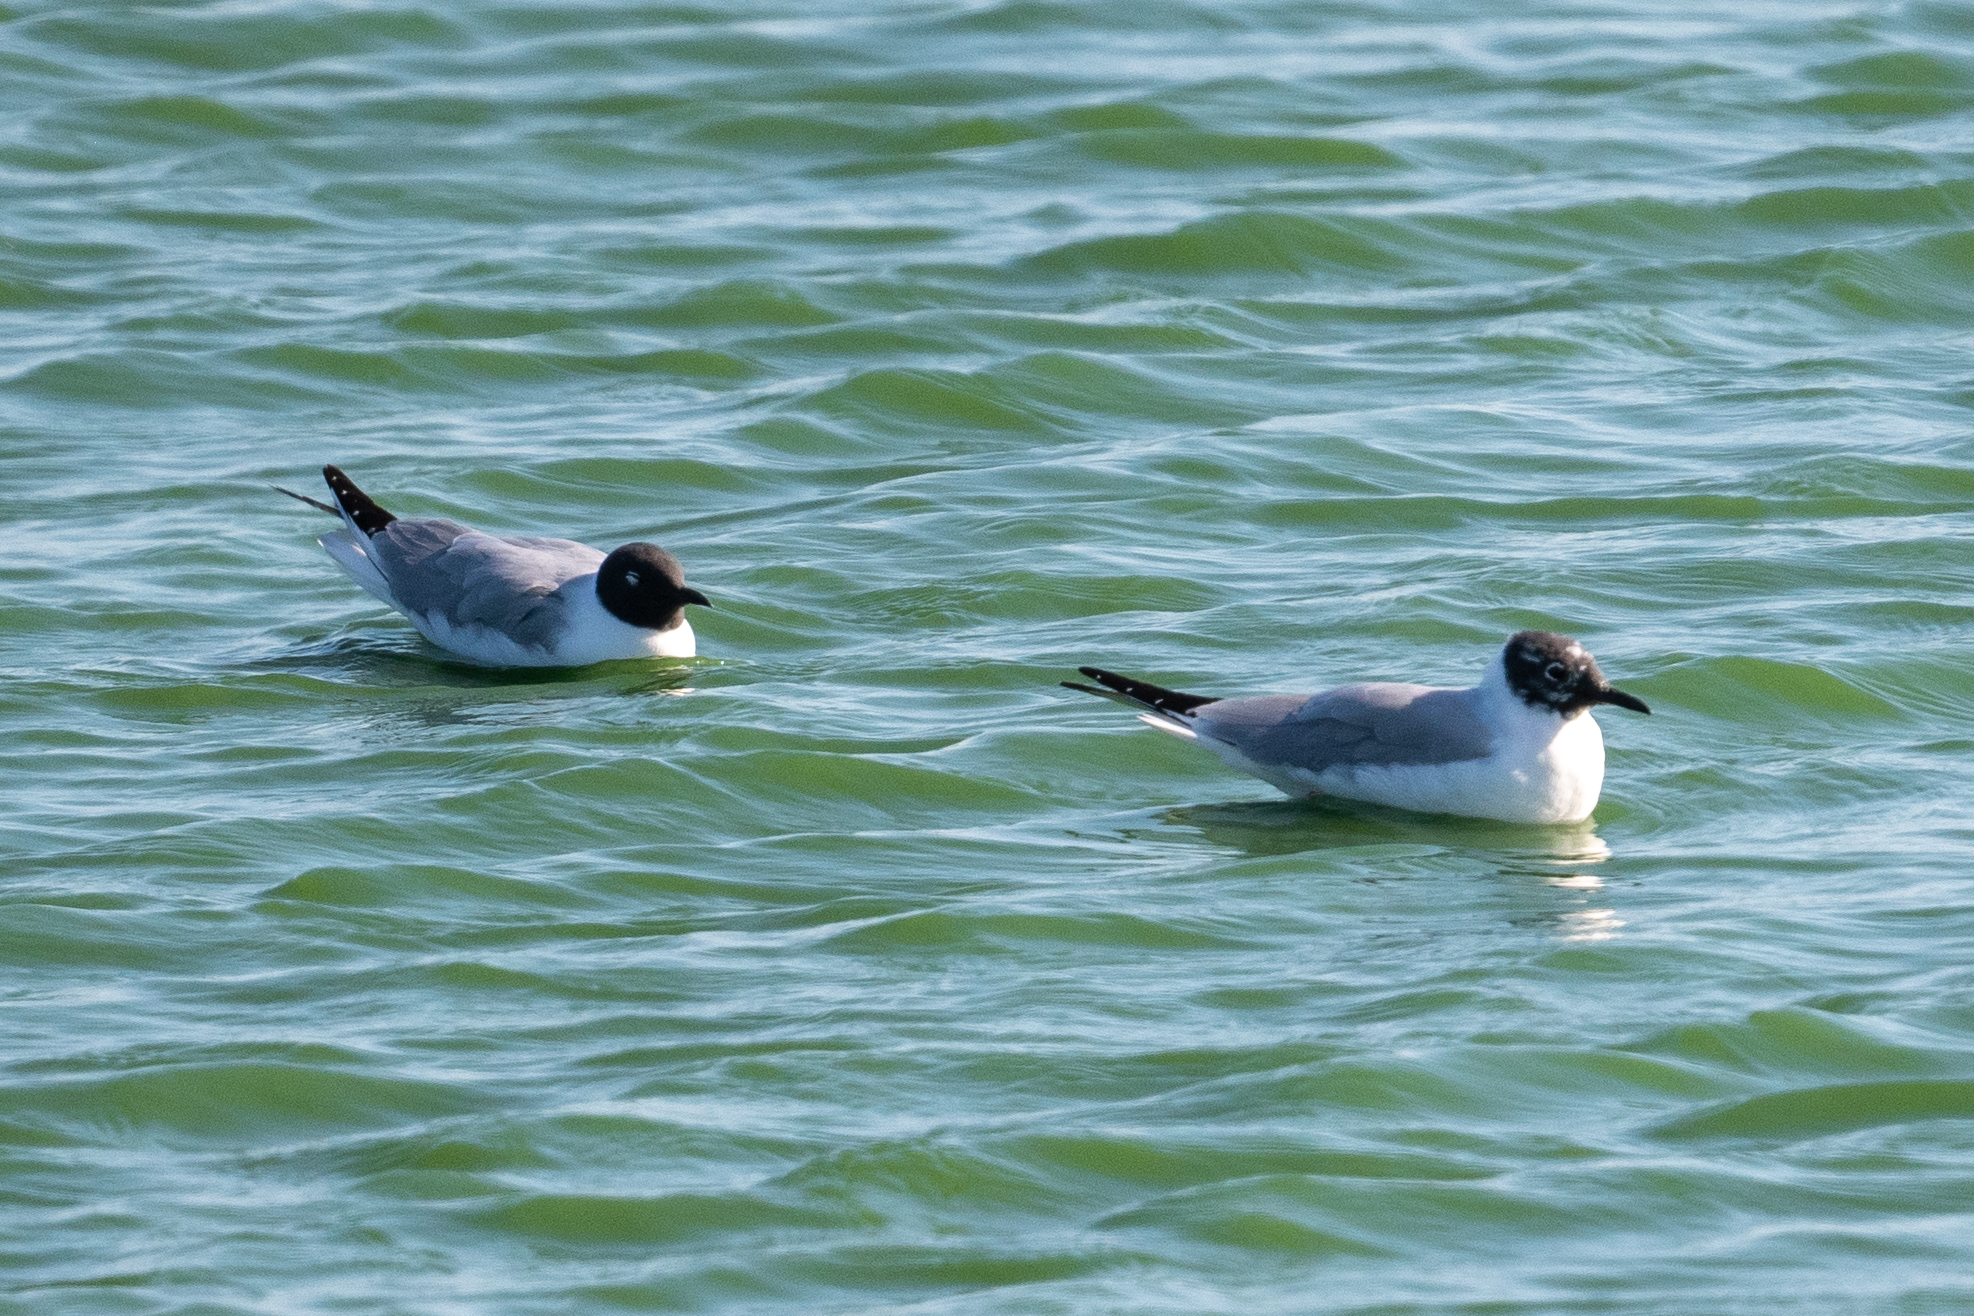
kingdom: Animalia
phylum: Chordata
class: Aves
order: Charadriiformes
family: Laridae
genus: Chroicocephalus
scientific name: Chroicocephalus philadelphia
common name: Bonaparte's gull
